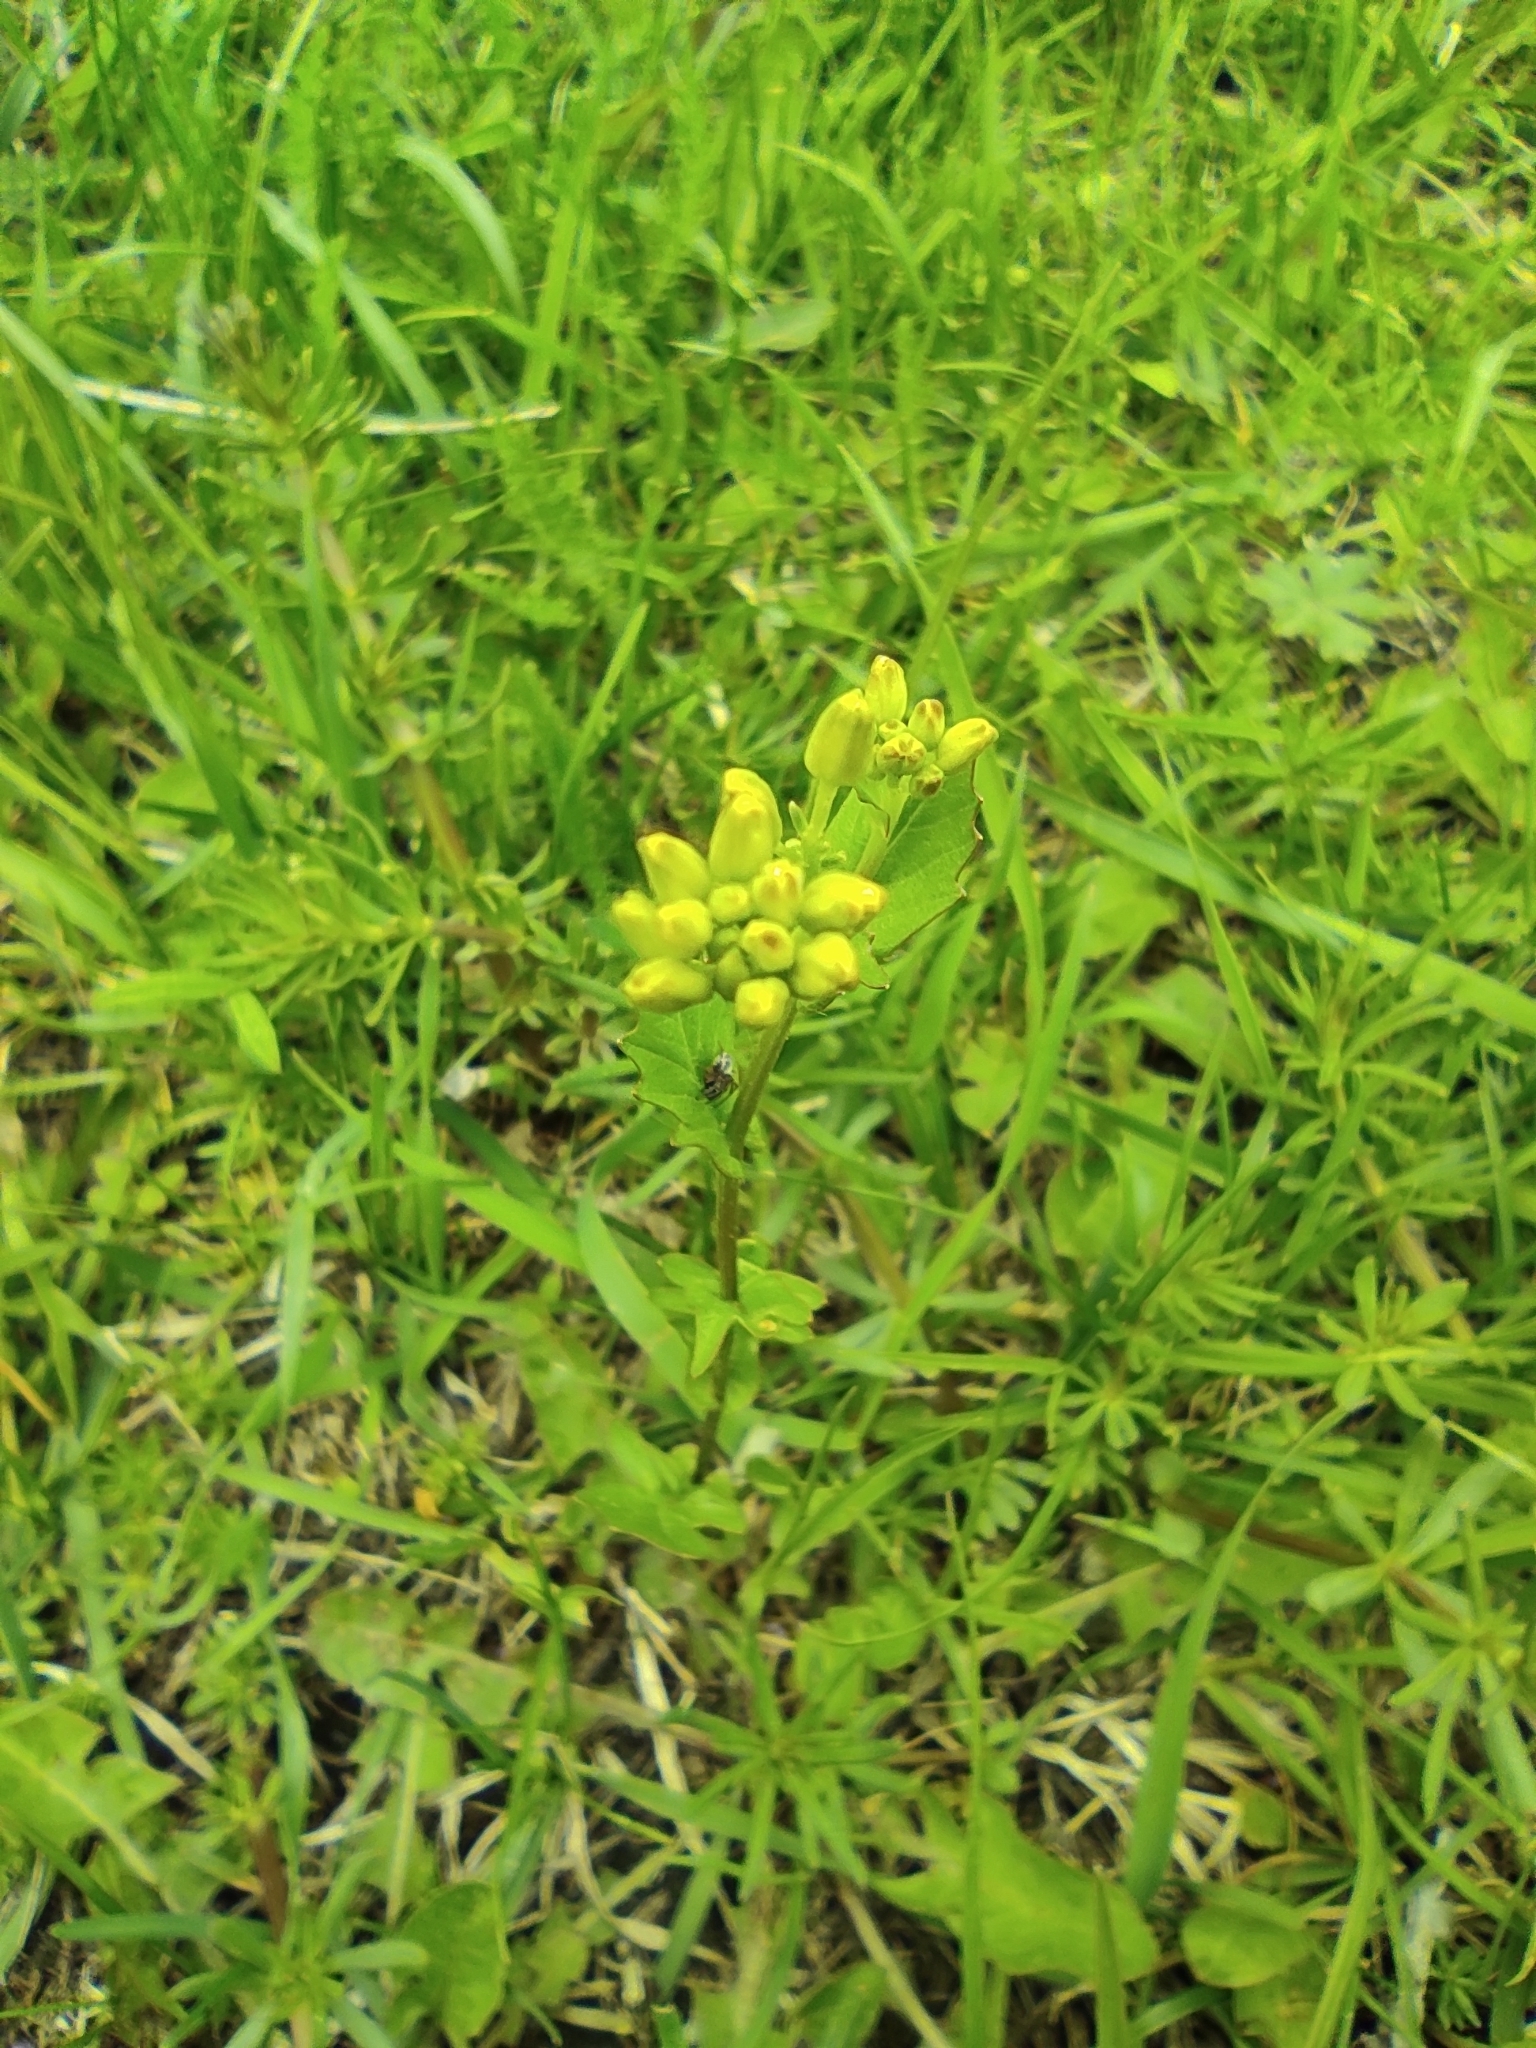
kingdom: Plantae
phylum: Tracheophyta
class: Magnoliopsida
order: Brassicales
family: Brassicaceae
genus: Barbarea
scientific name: Barbarea vulgaris
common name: Cressy-greens
